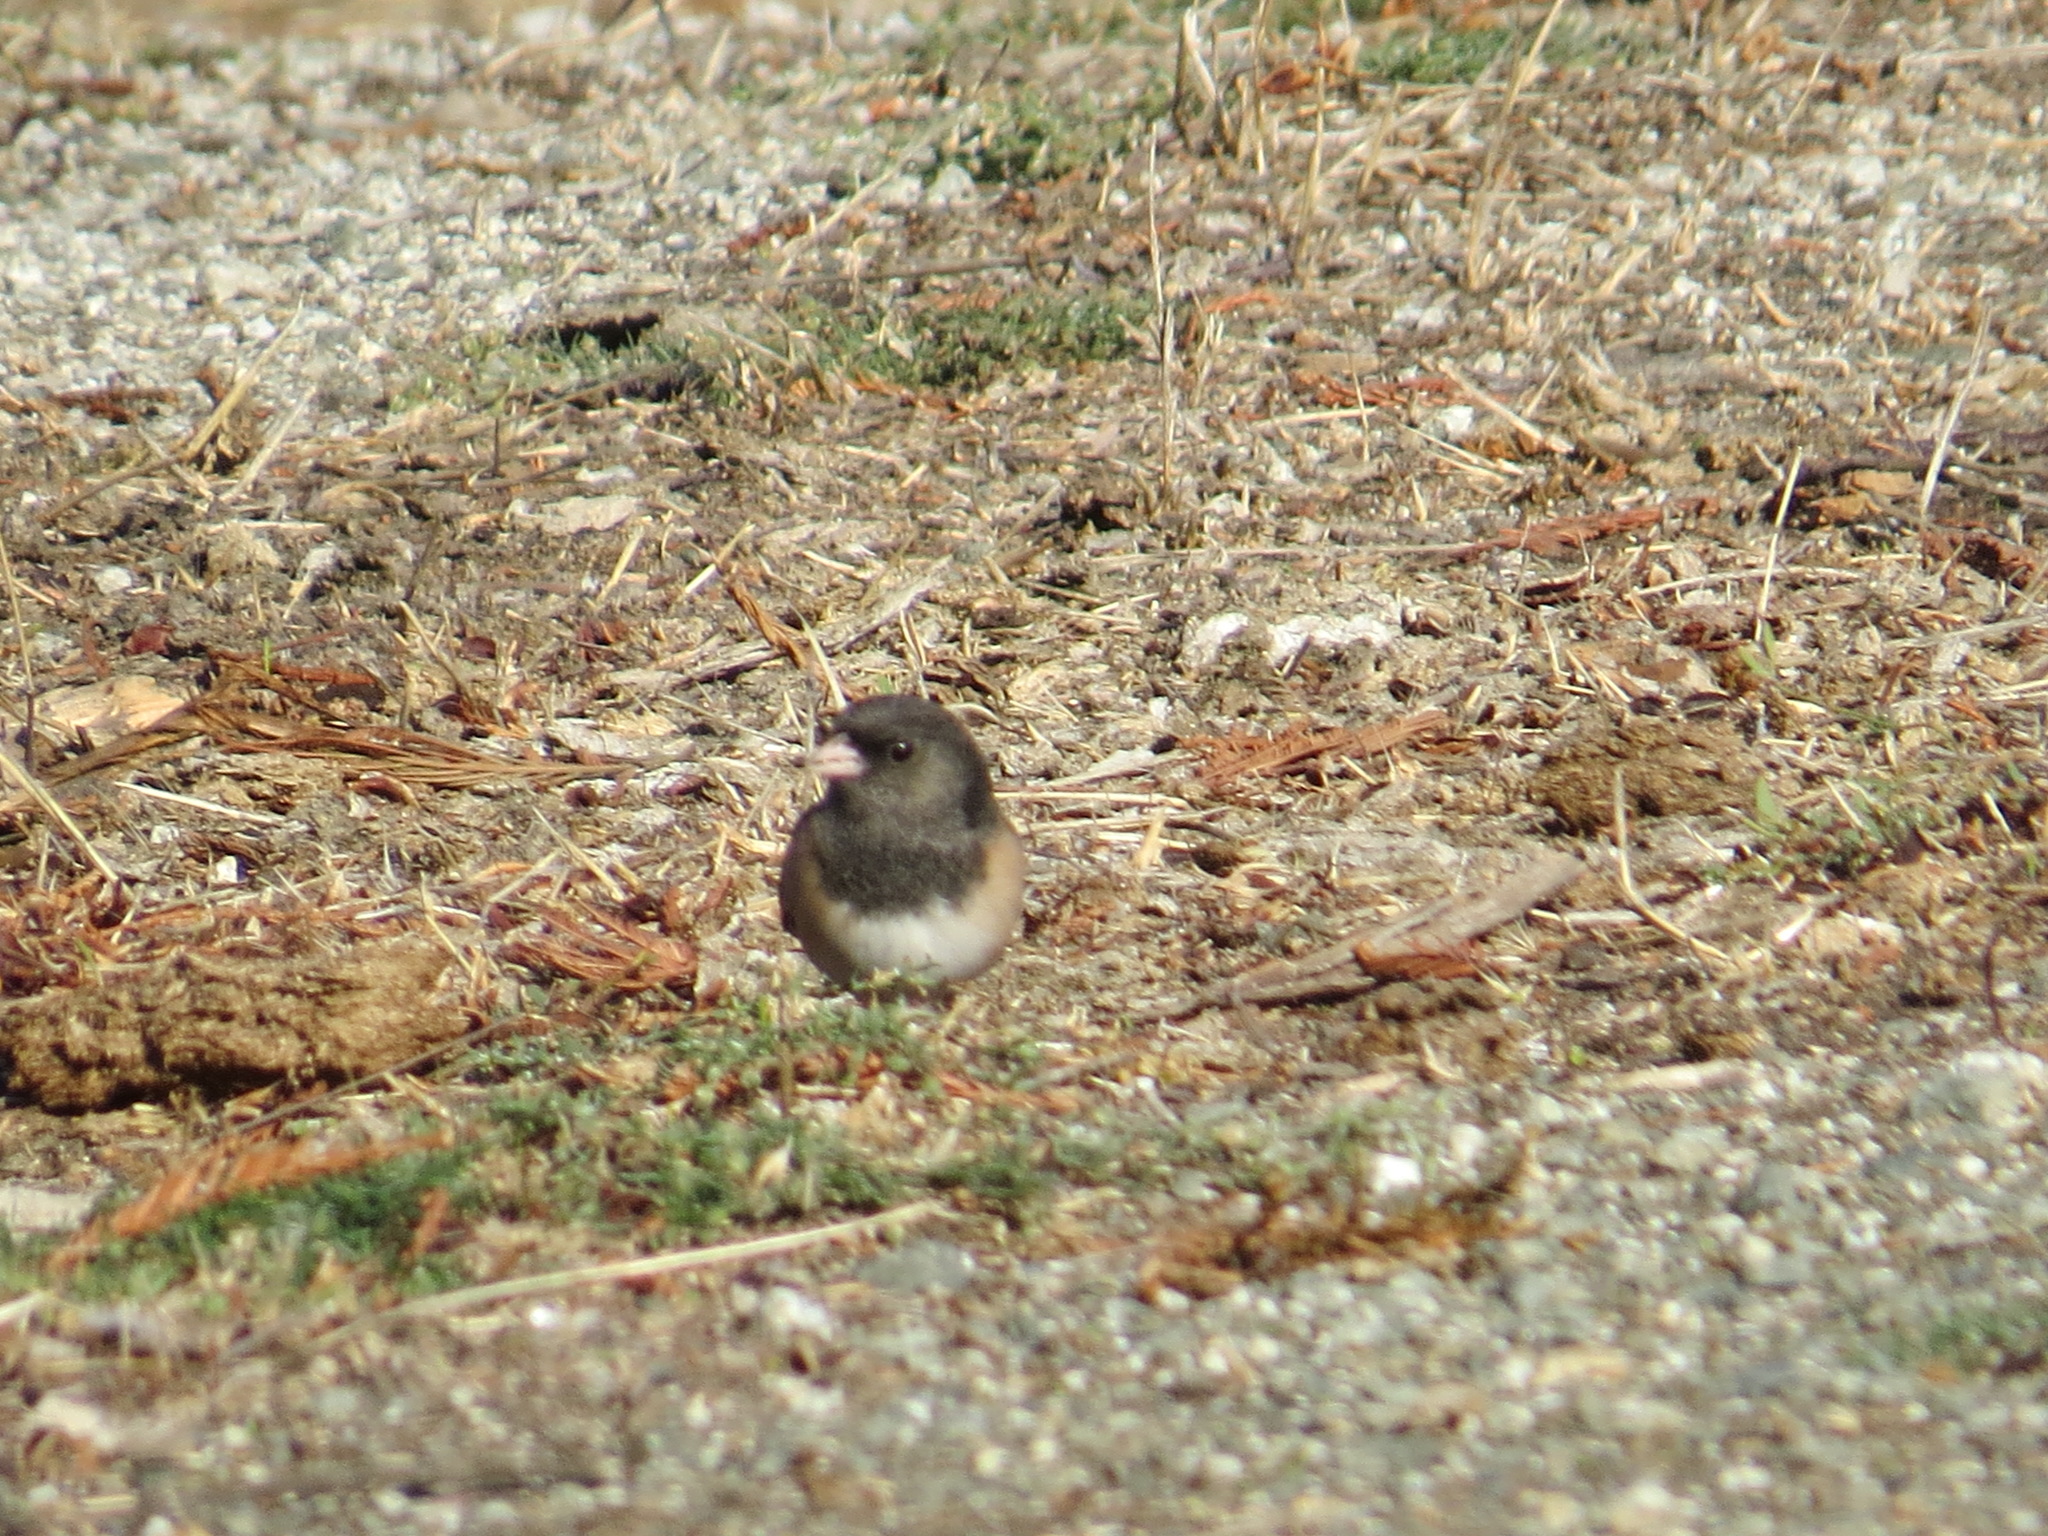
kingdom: Animalia
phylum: Chordata
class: Aves
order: Passeriformes
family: Passerellidae
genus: Junco
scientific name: Junco hyemalis
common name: Dark-eyed junco
